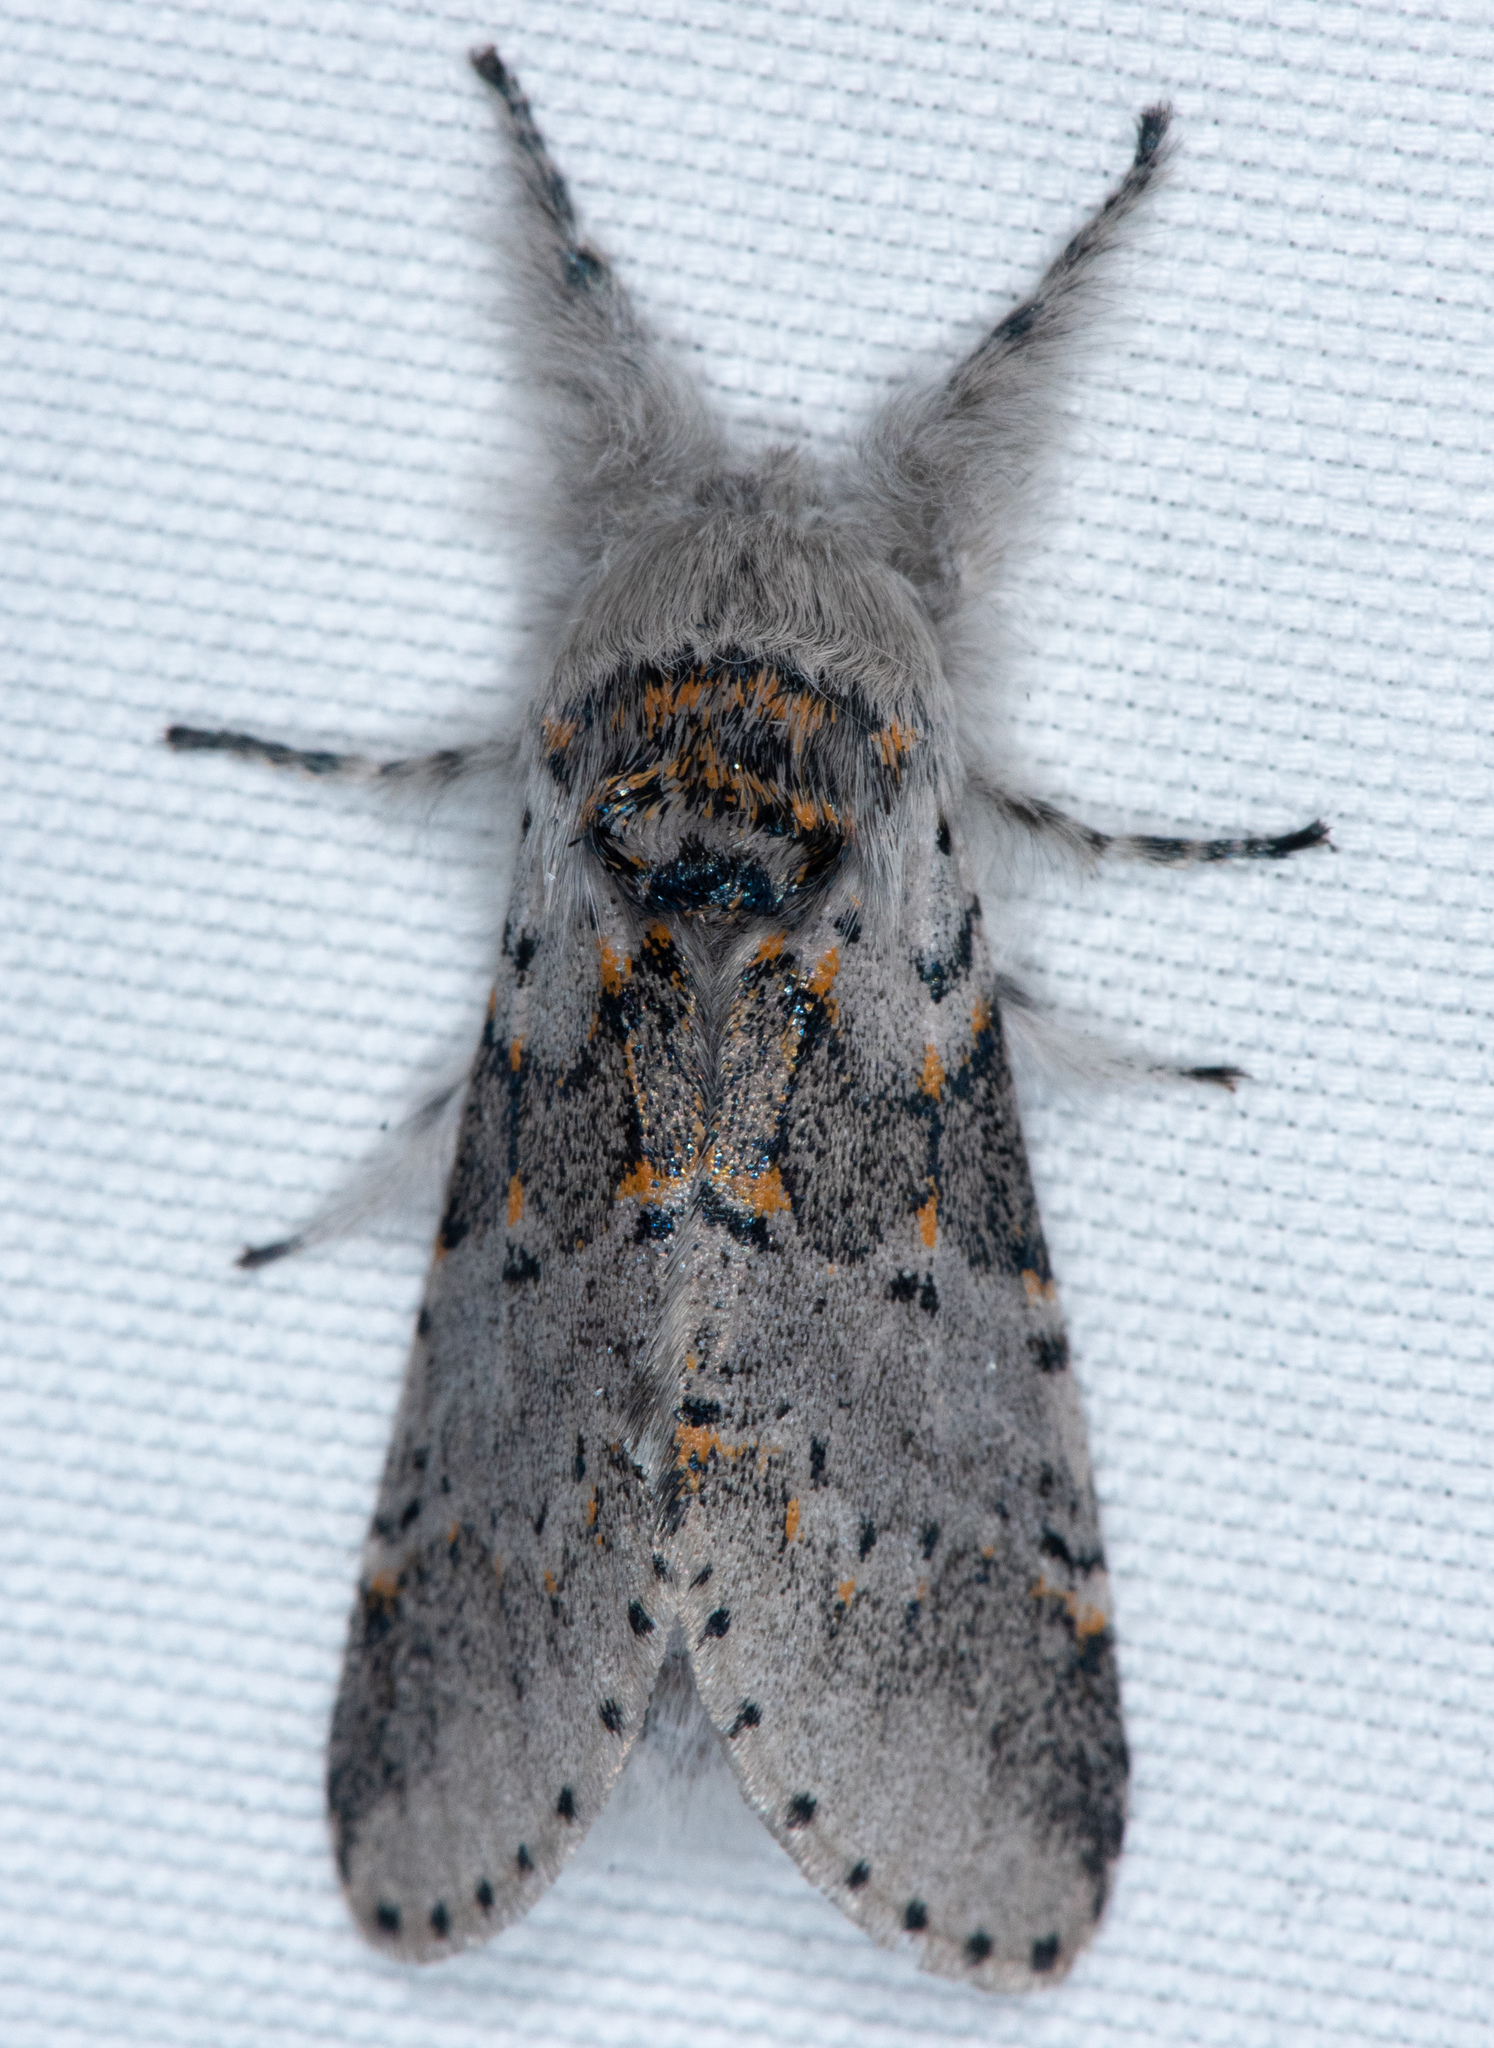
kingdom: Animalia
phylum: Arthropoda
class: Insecta
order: Lepidoptera
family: Notodontidae
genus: Furcula
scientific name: Furcula cinerea
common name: Gray furcula
